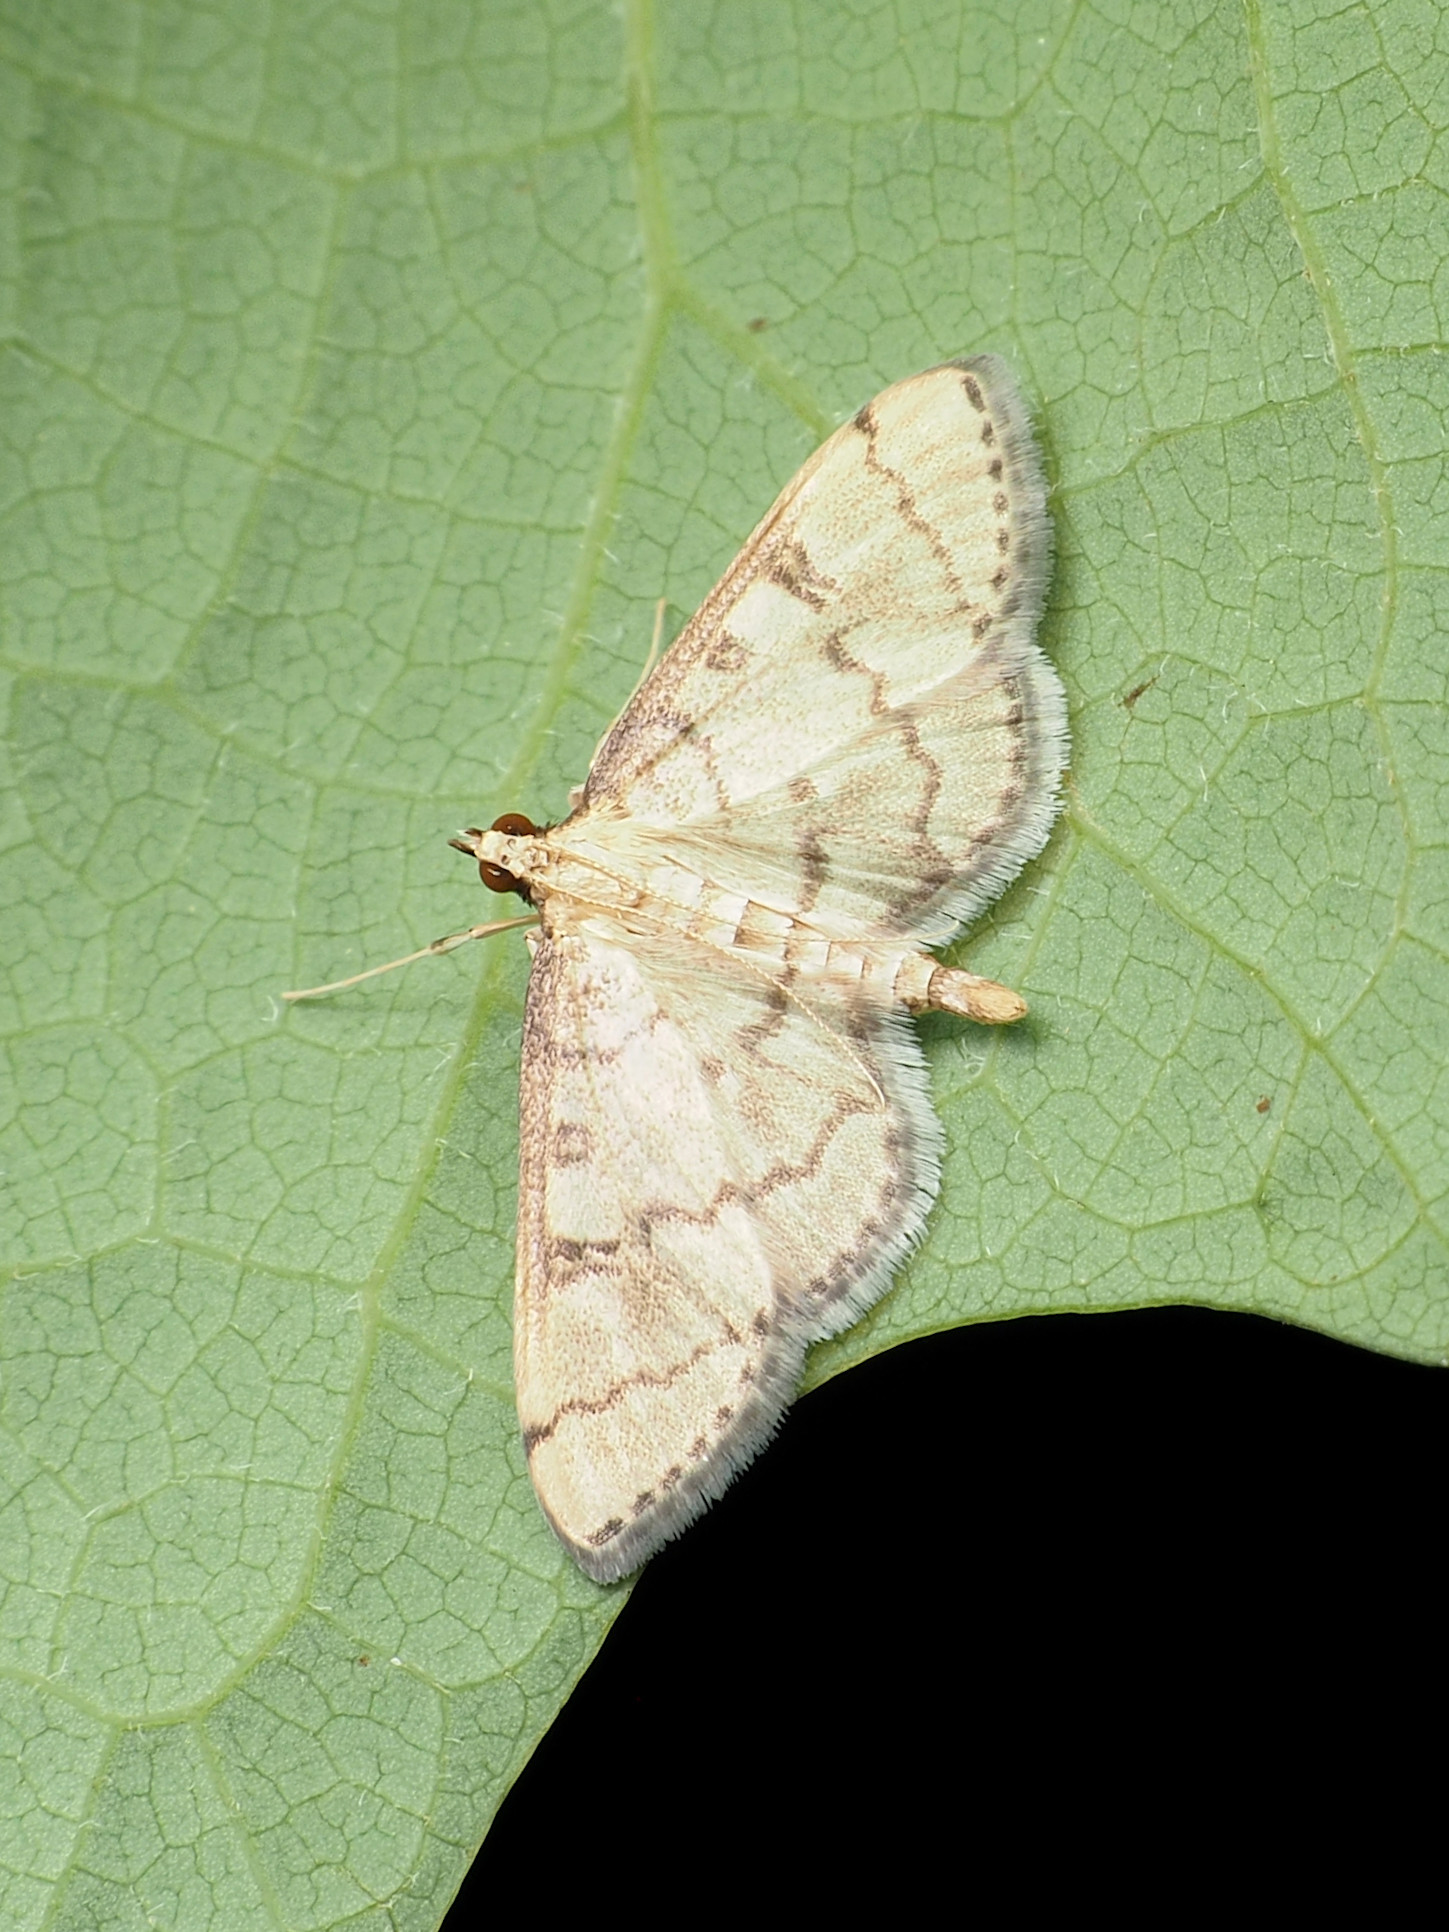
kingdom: Animalia
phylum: Arthropoda
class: Insecta
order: Lepidoptera
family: Crambidae
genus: Lamprosema
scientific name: Lamprosema Blepharomastix ranalis
